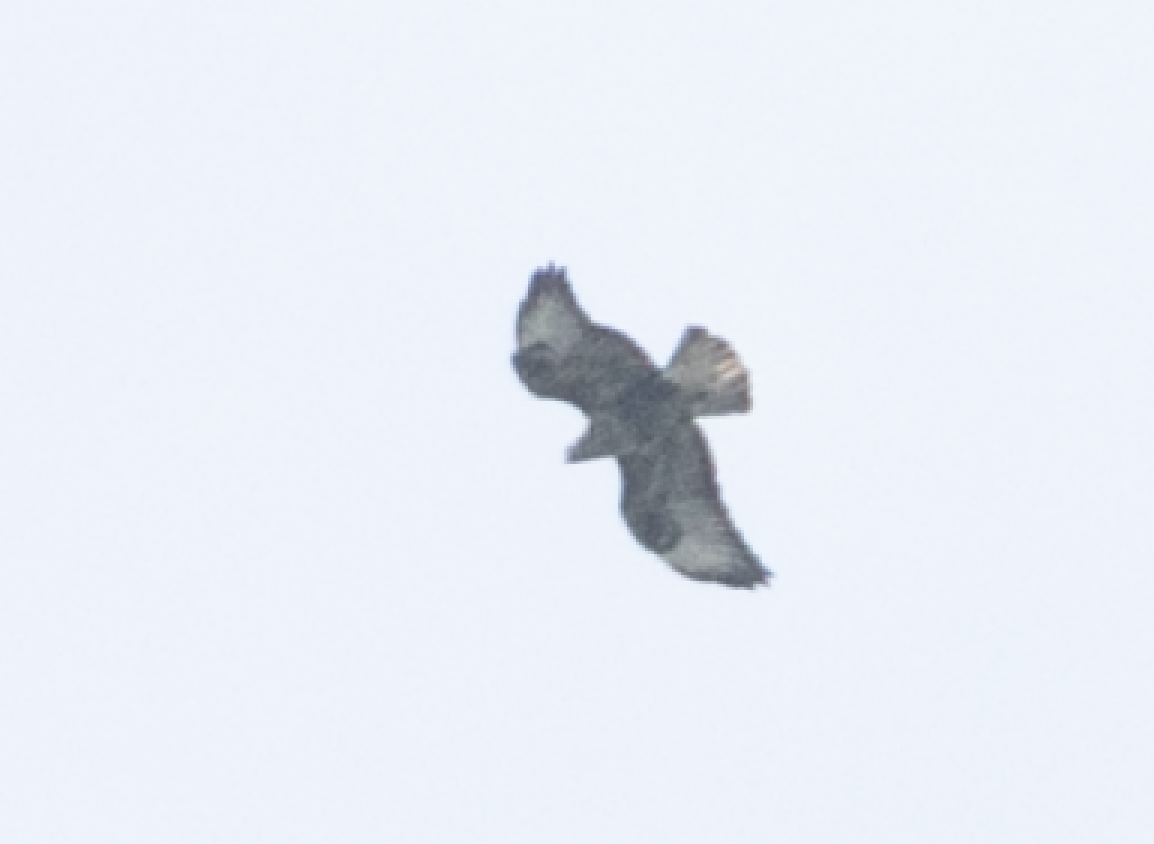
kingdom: Animalia
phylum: Chordata
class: Aves
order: Accipitriformes
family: Accipitridae
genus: Buteo
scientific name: Buteo buteo
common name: Common buzzard
